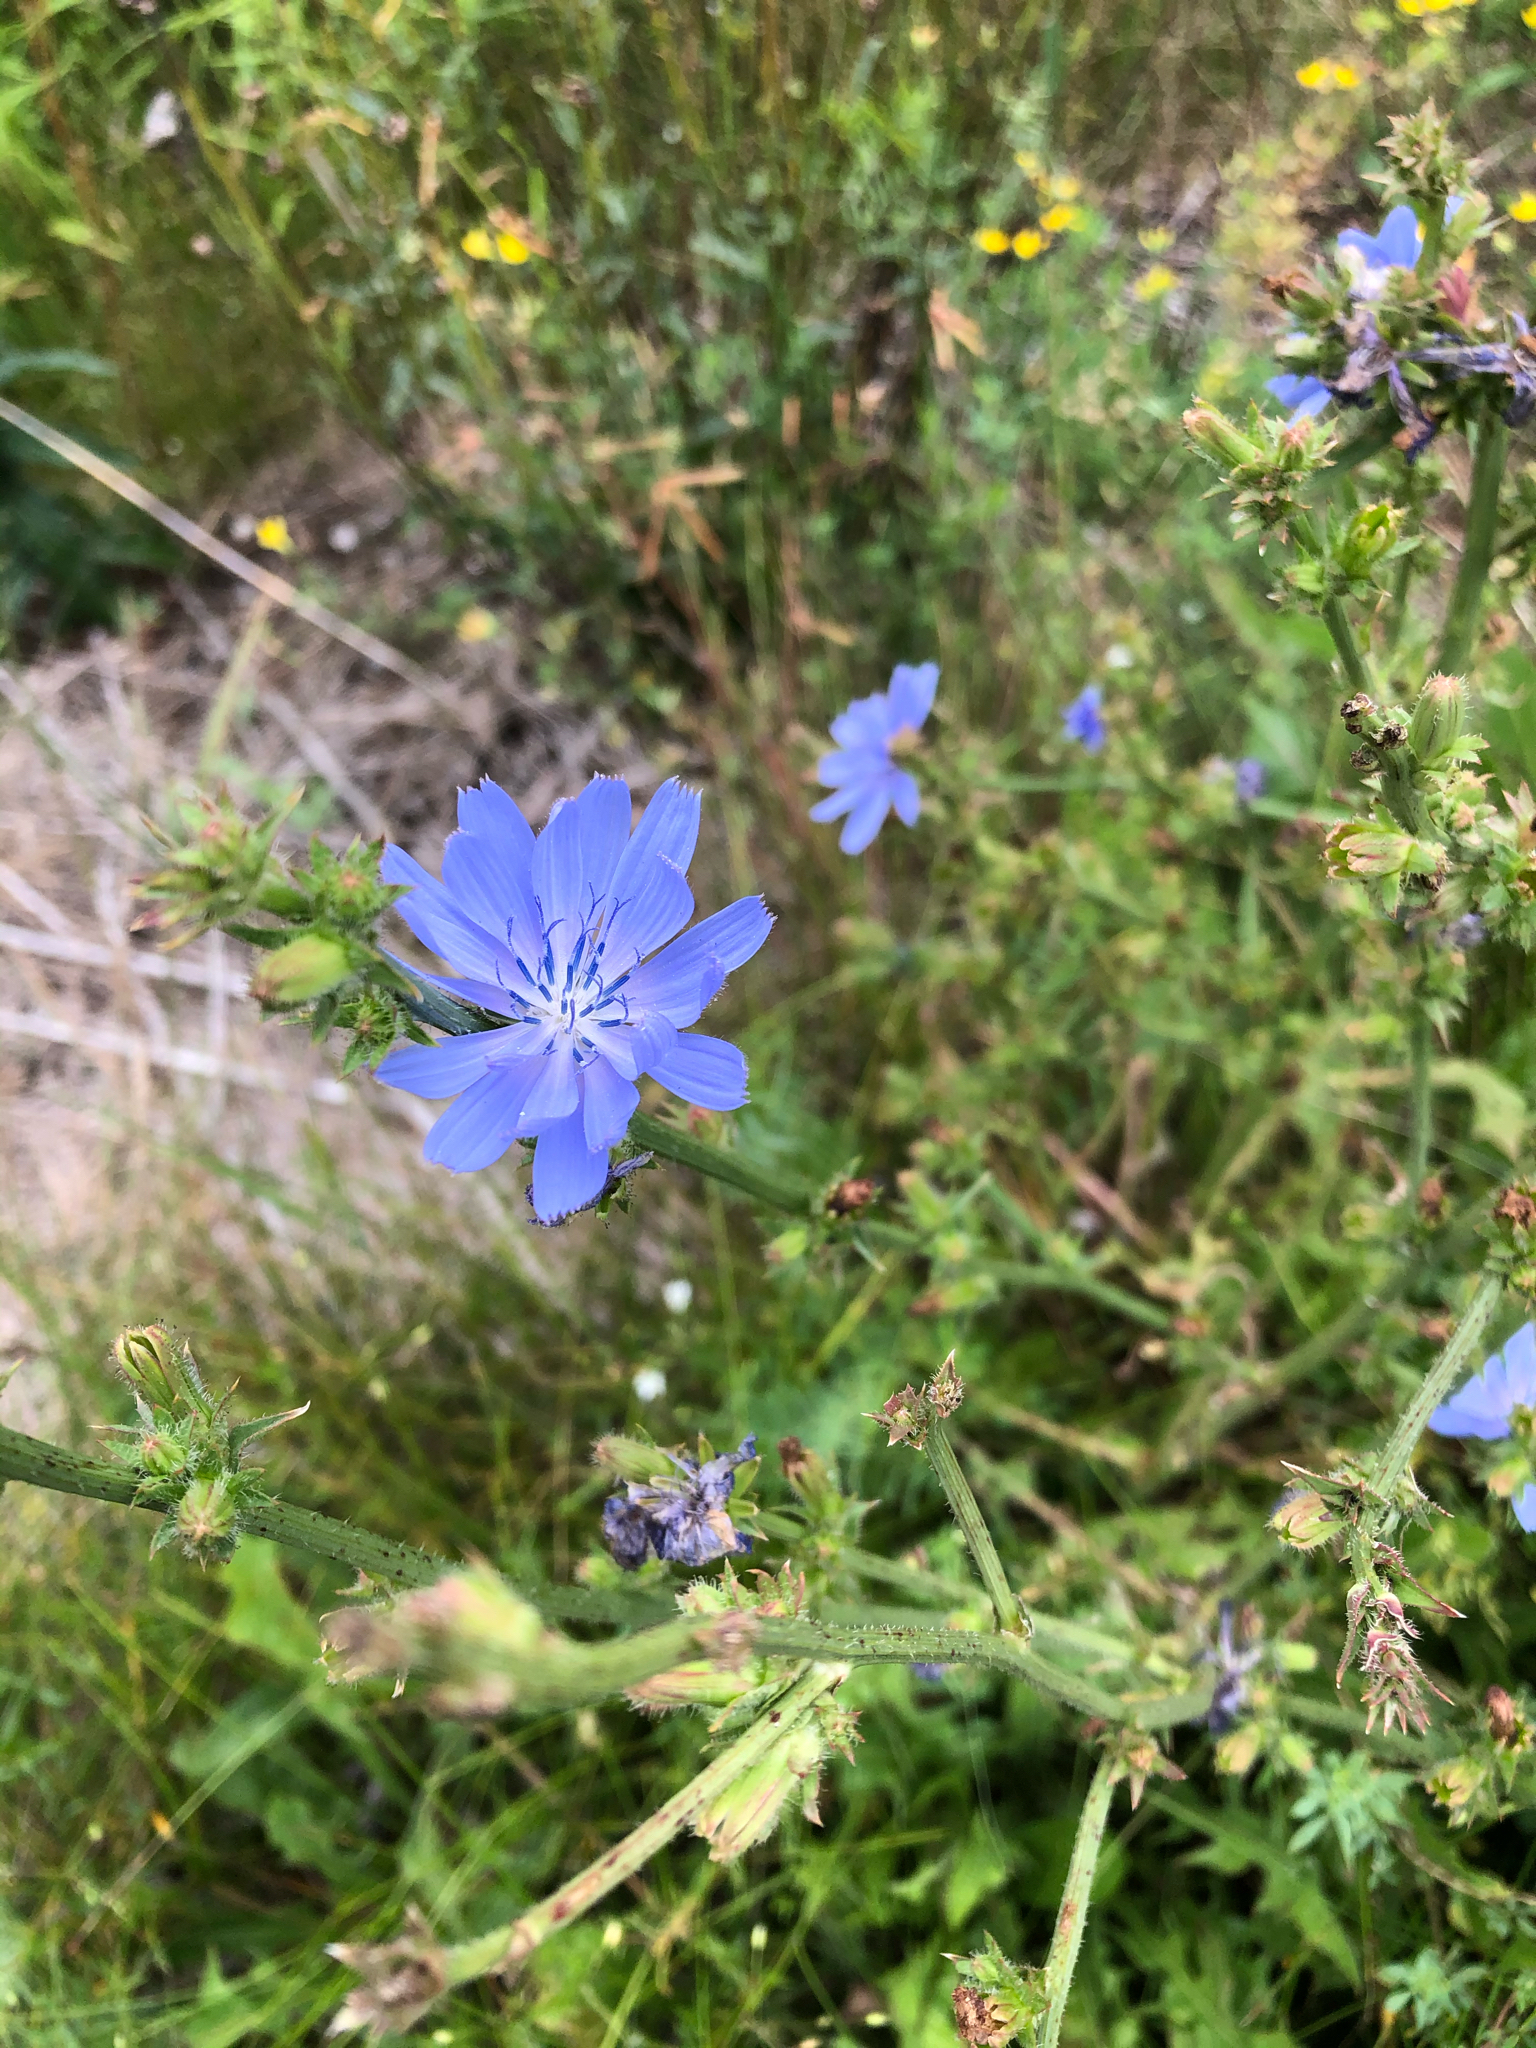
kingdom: Plantae
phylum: Tracheophyta
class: Magnoliopsida
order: Asterales
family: Asteraceae
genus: Cichorium
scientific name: Cichorium intybus
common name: Chicory
